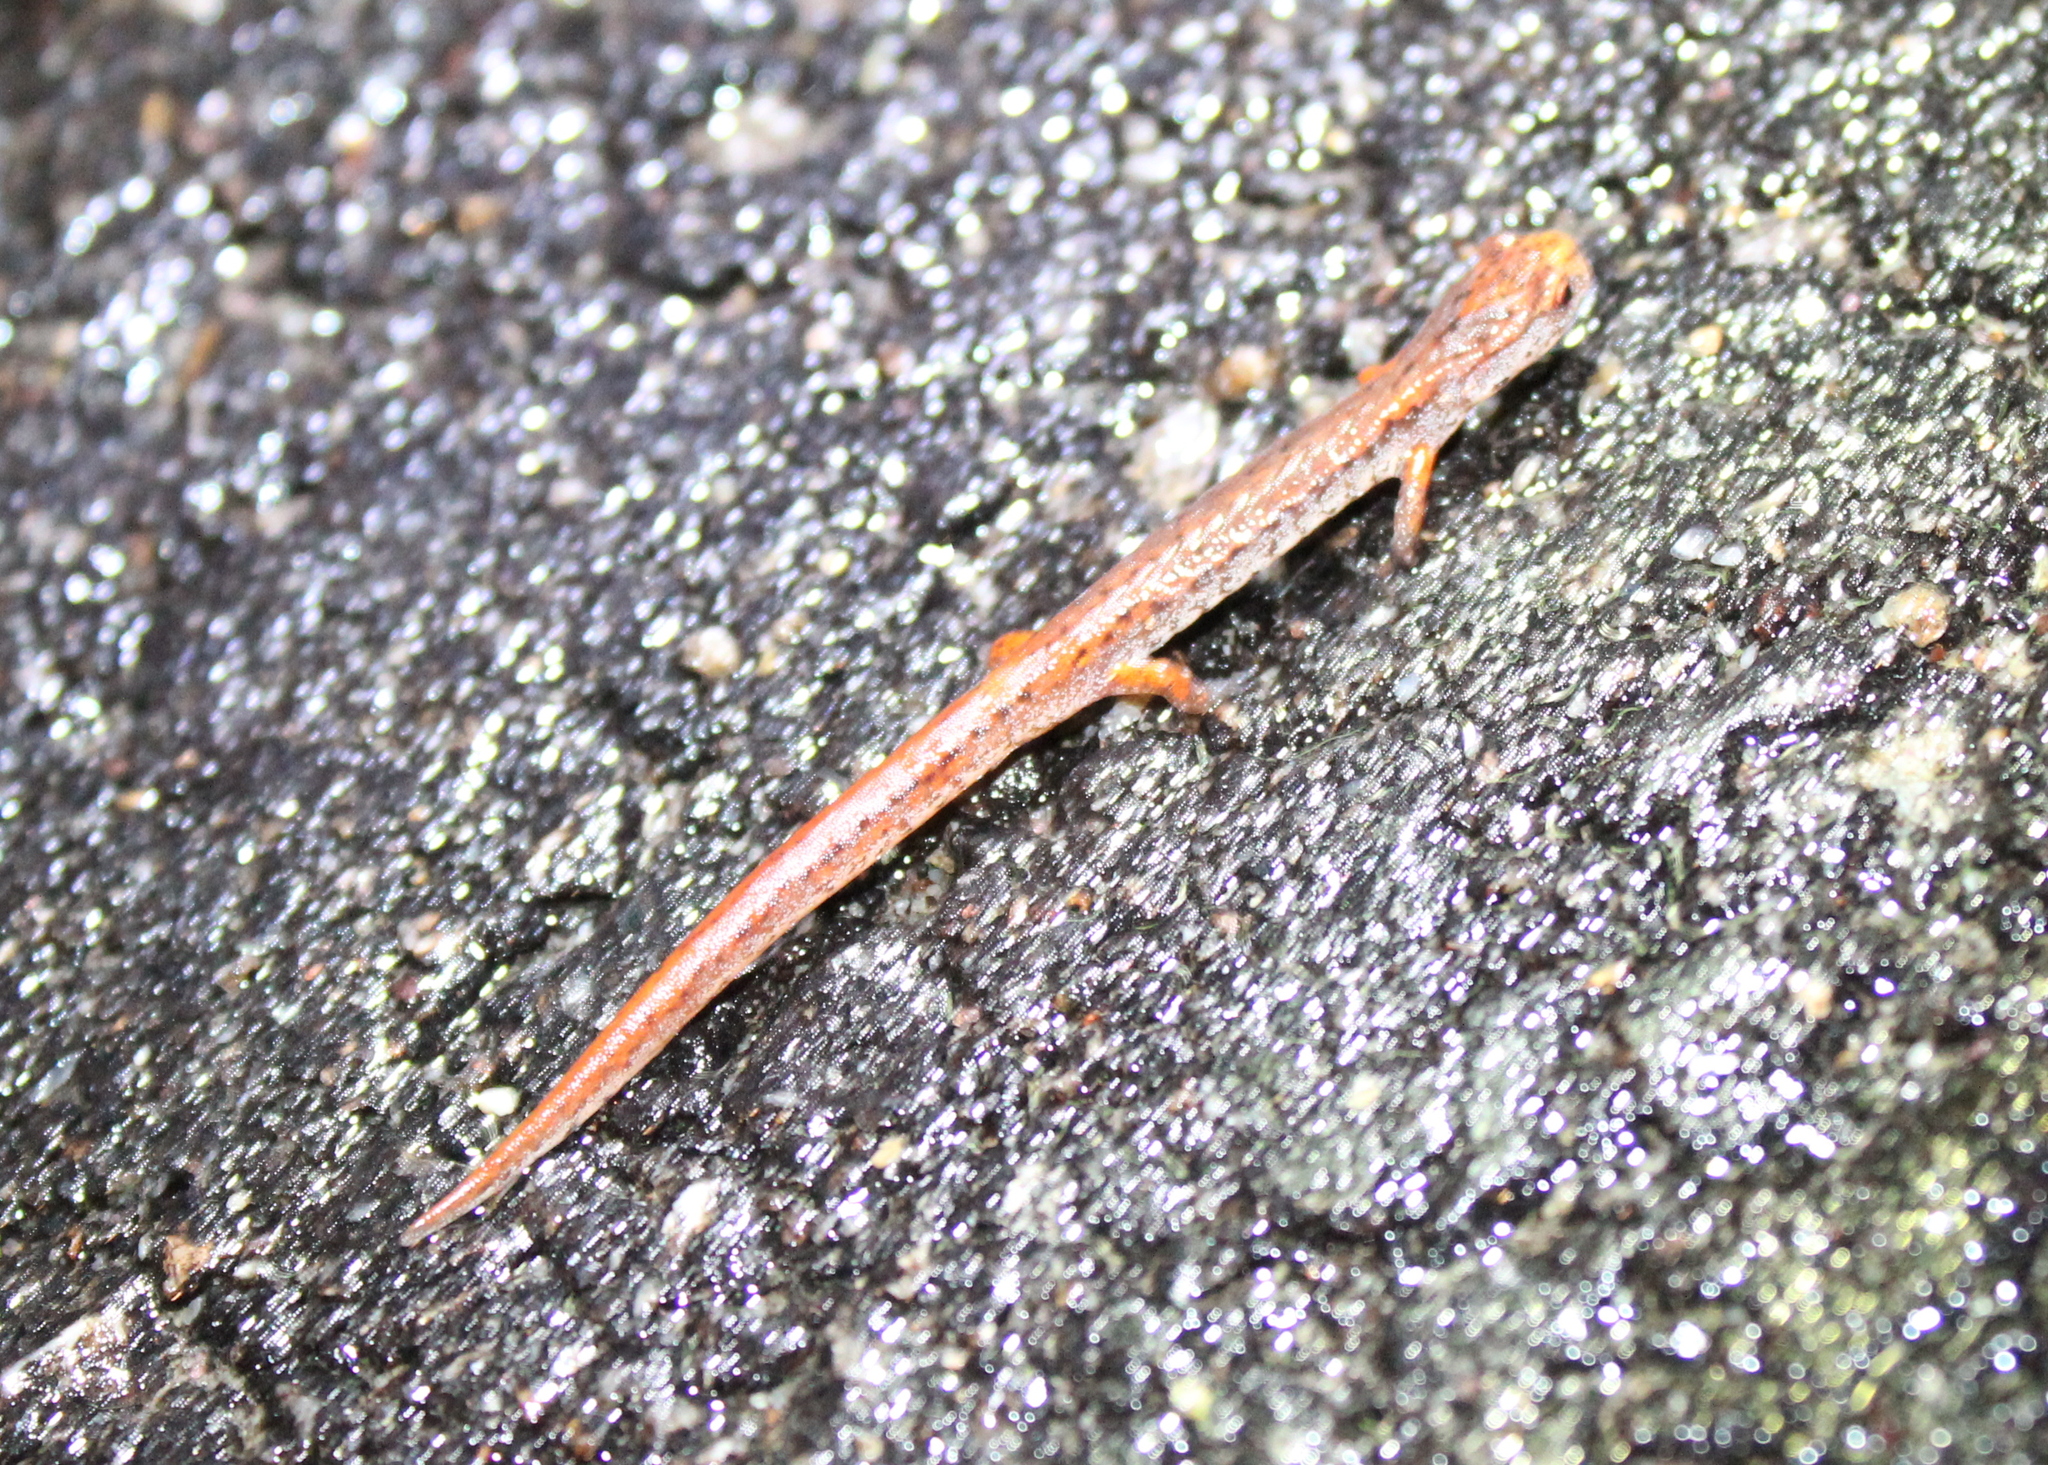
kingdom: Animalia
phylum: Chordata
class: Amphibia
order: Caudata
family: Plethodontidae
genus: Hemidactylium
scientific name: Hemidactylium scutatum
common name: Four-toed salamander
